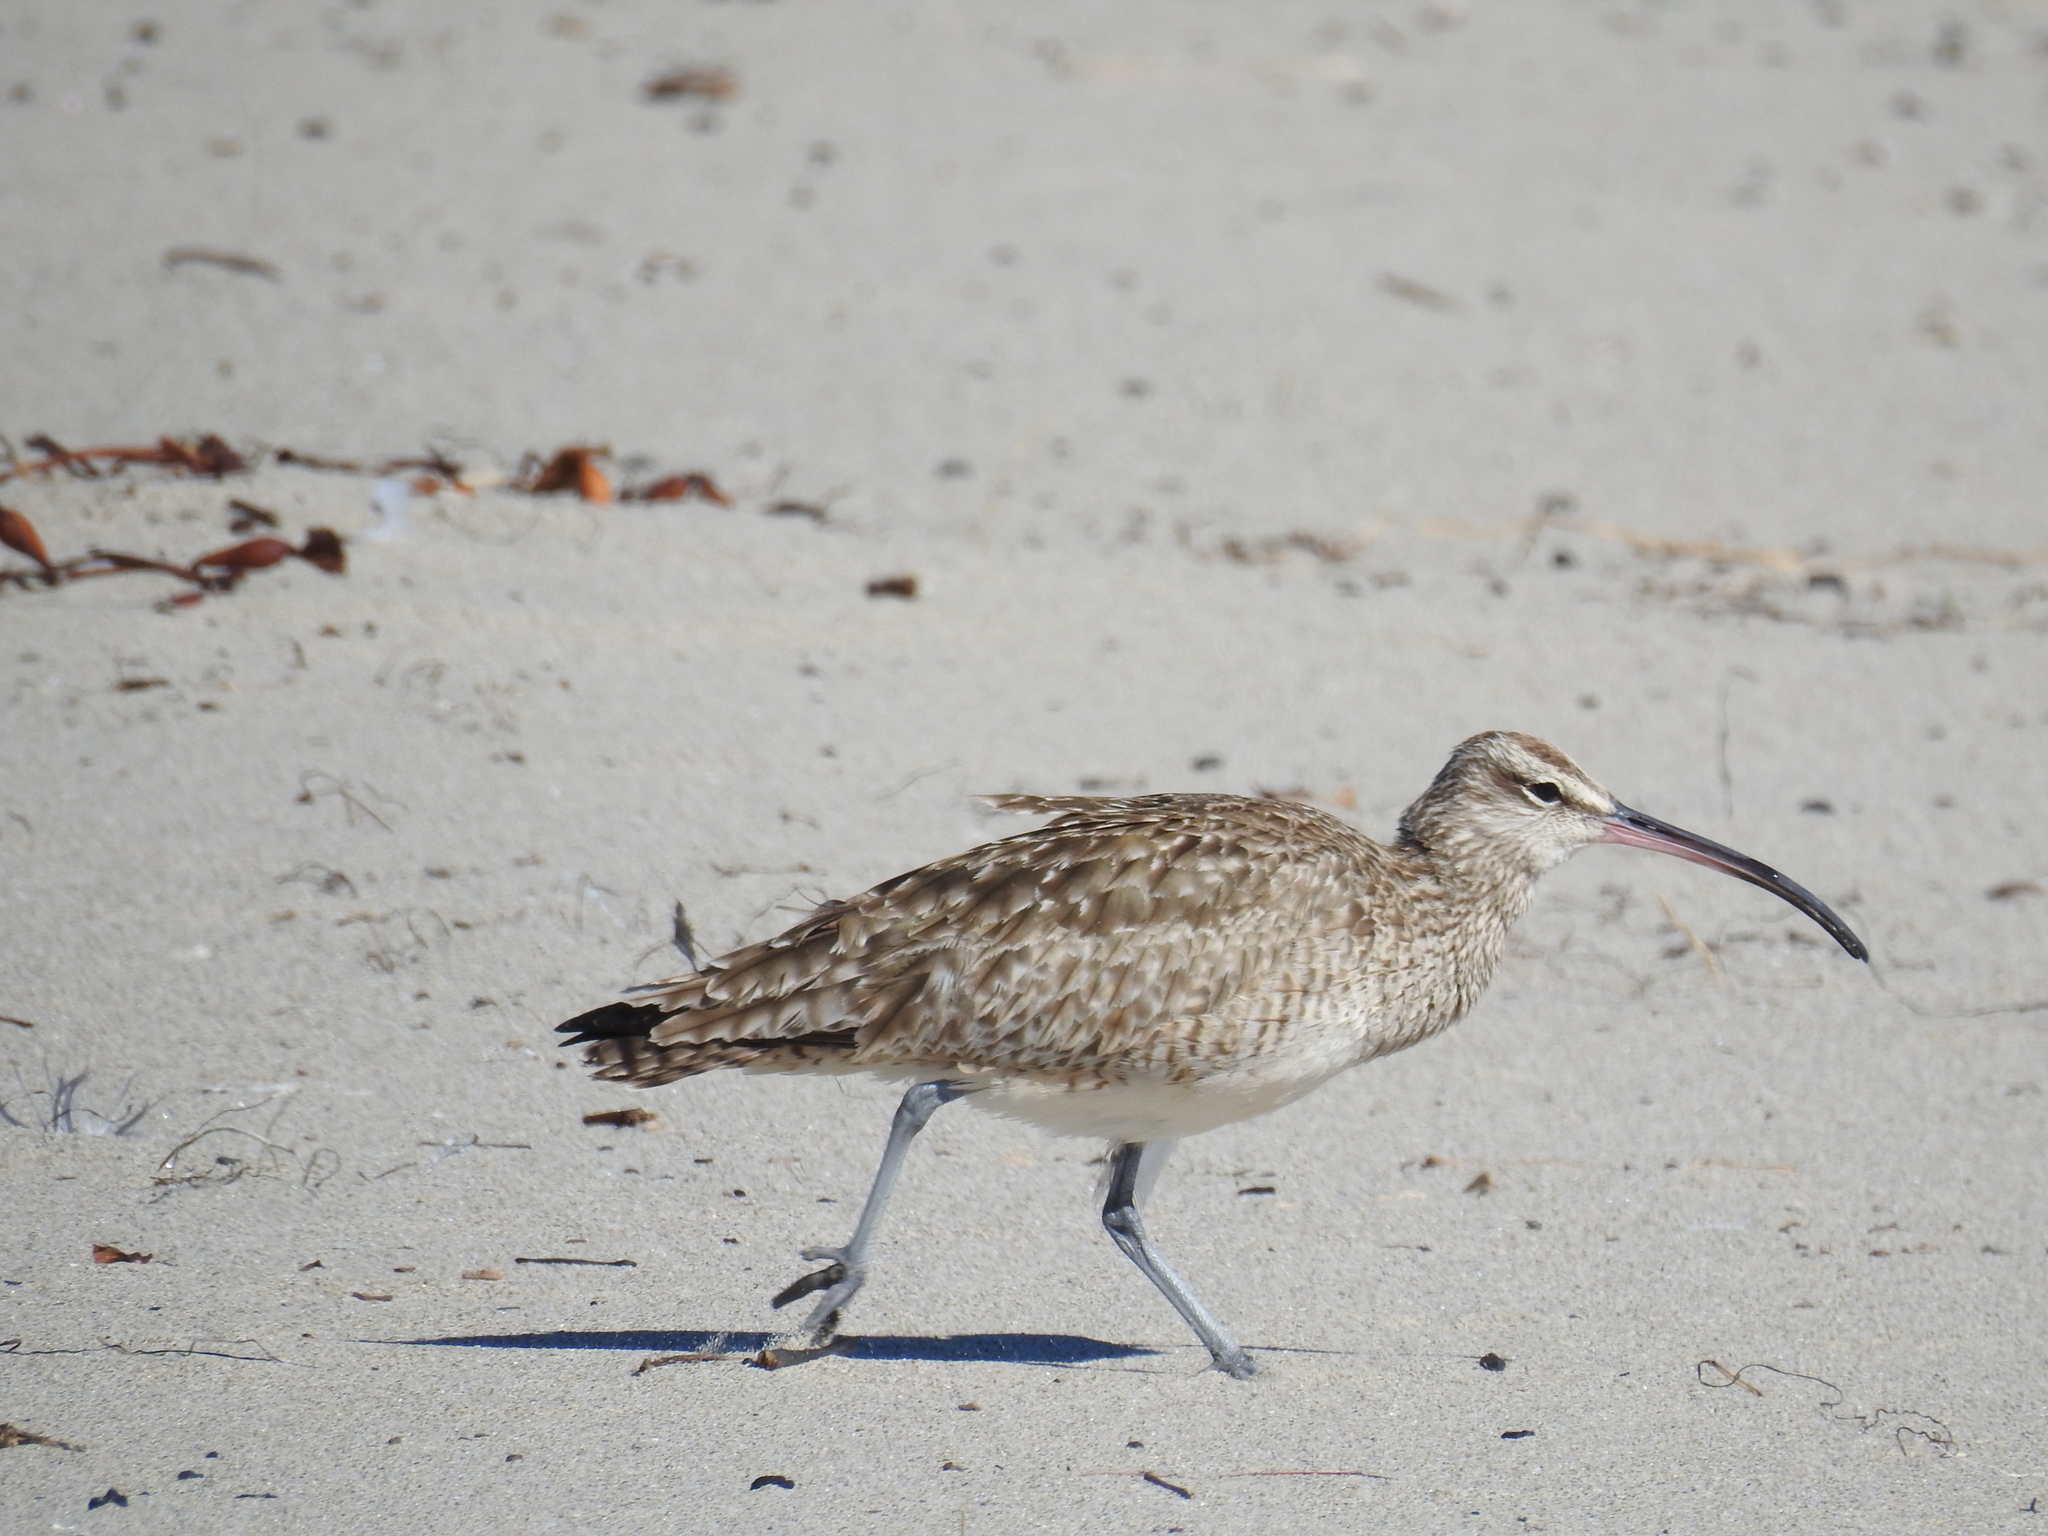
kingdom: Animalia
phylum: Chordata
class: Aves
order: Charadriiformes
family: Scolopacidae
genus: Numenius
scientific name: Numenius phaeopus
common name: Whimbrel
